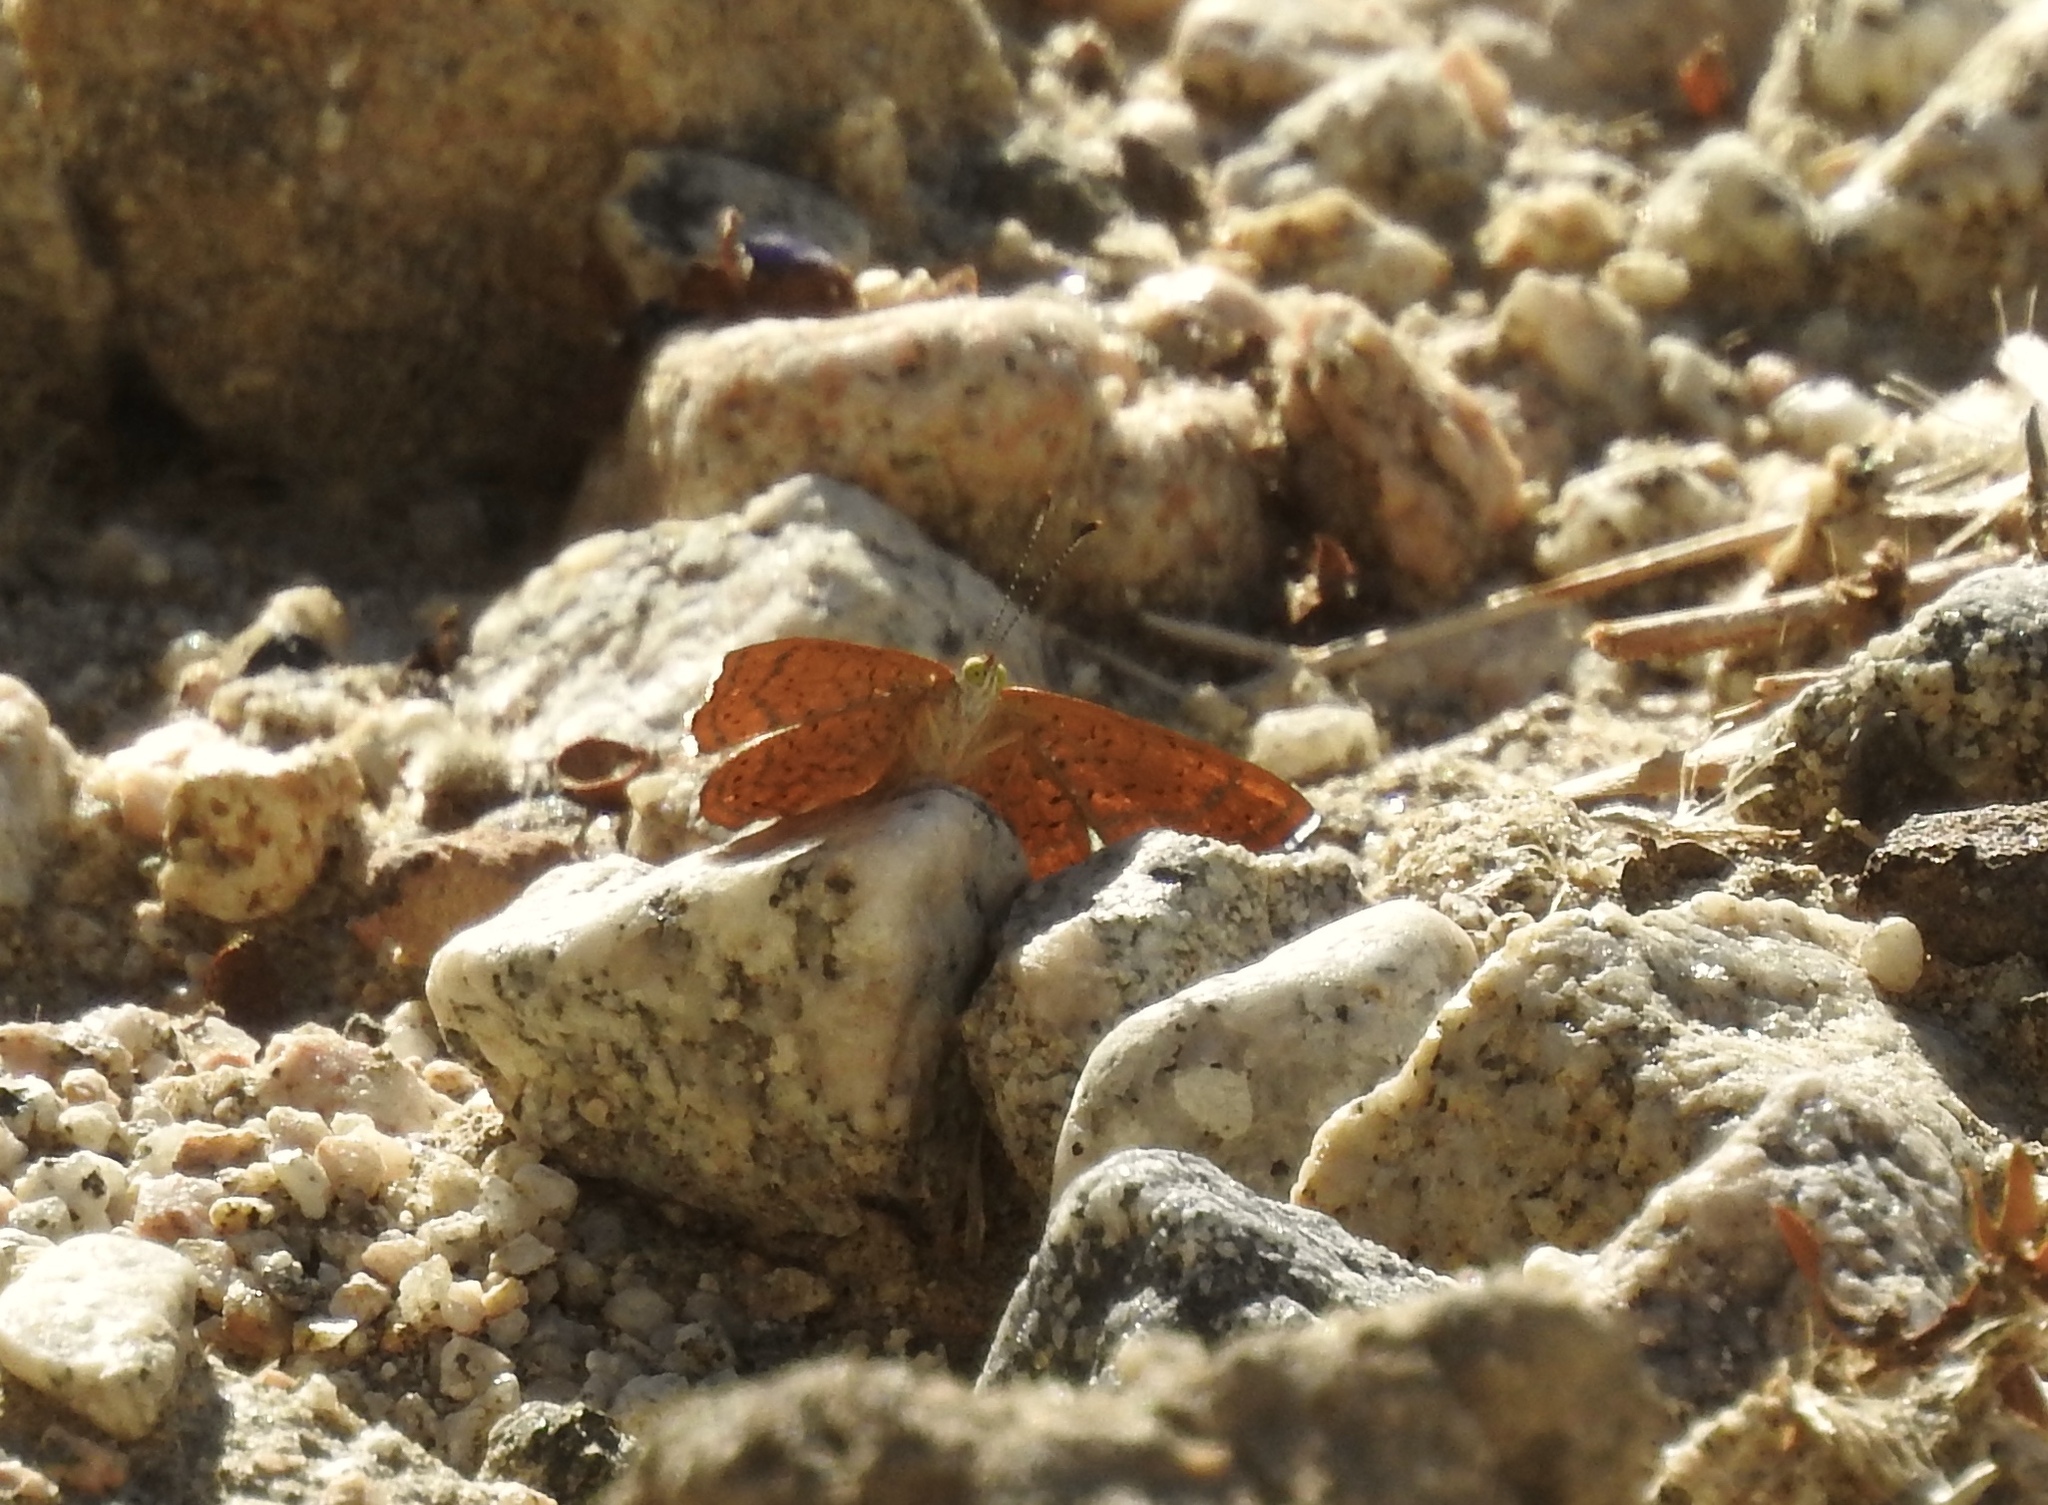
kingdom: Animalia
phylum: Arthropoda
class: Insecta
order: Lepidoptera
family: Lycaenidae
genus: Emesis
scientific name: Emesis wrighti
